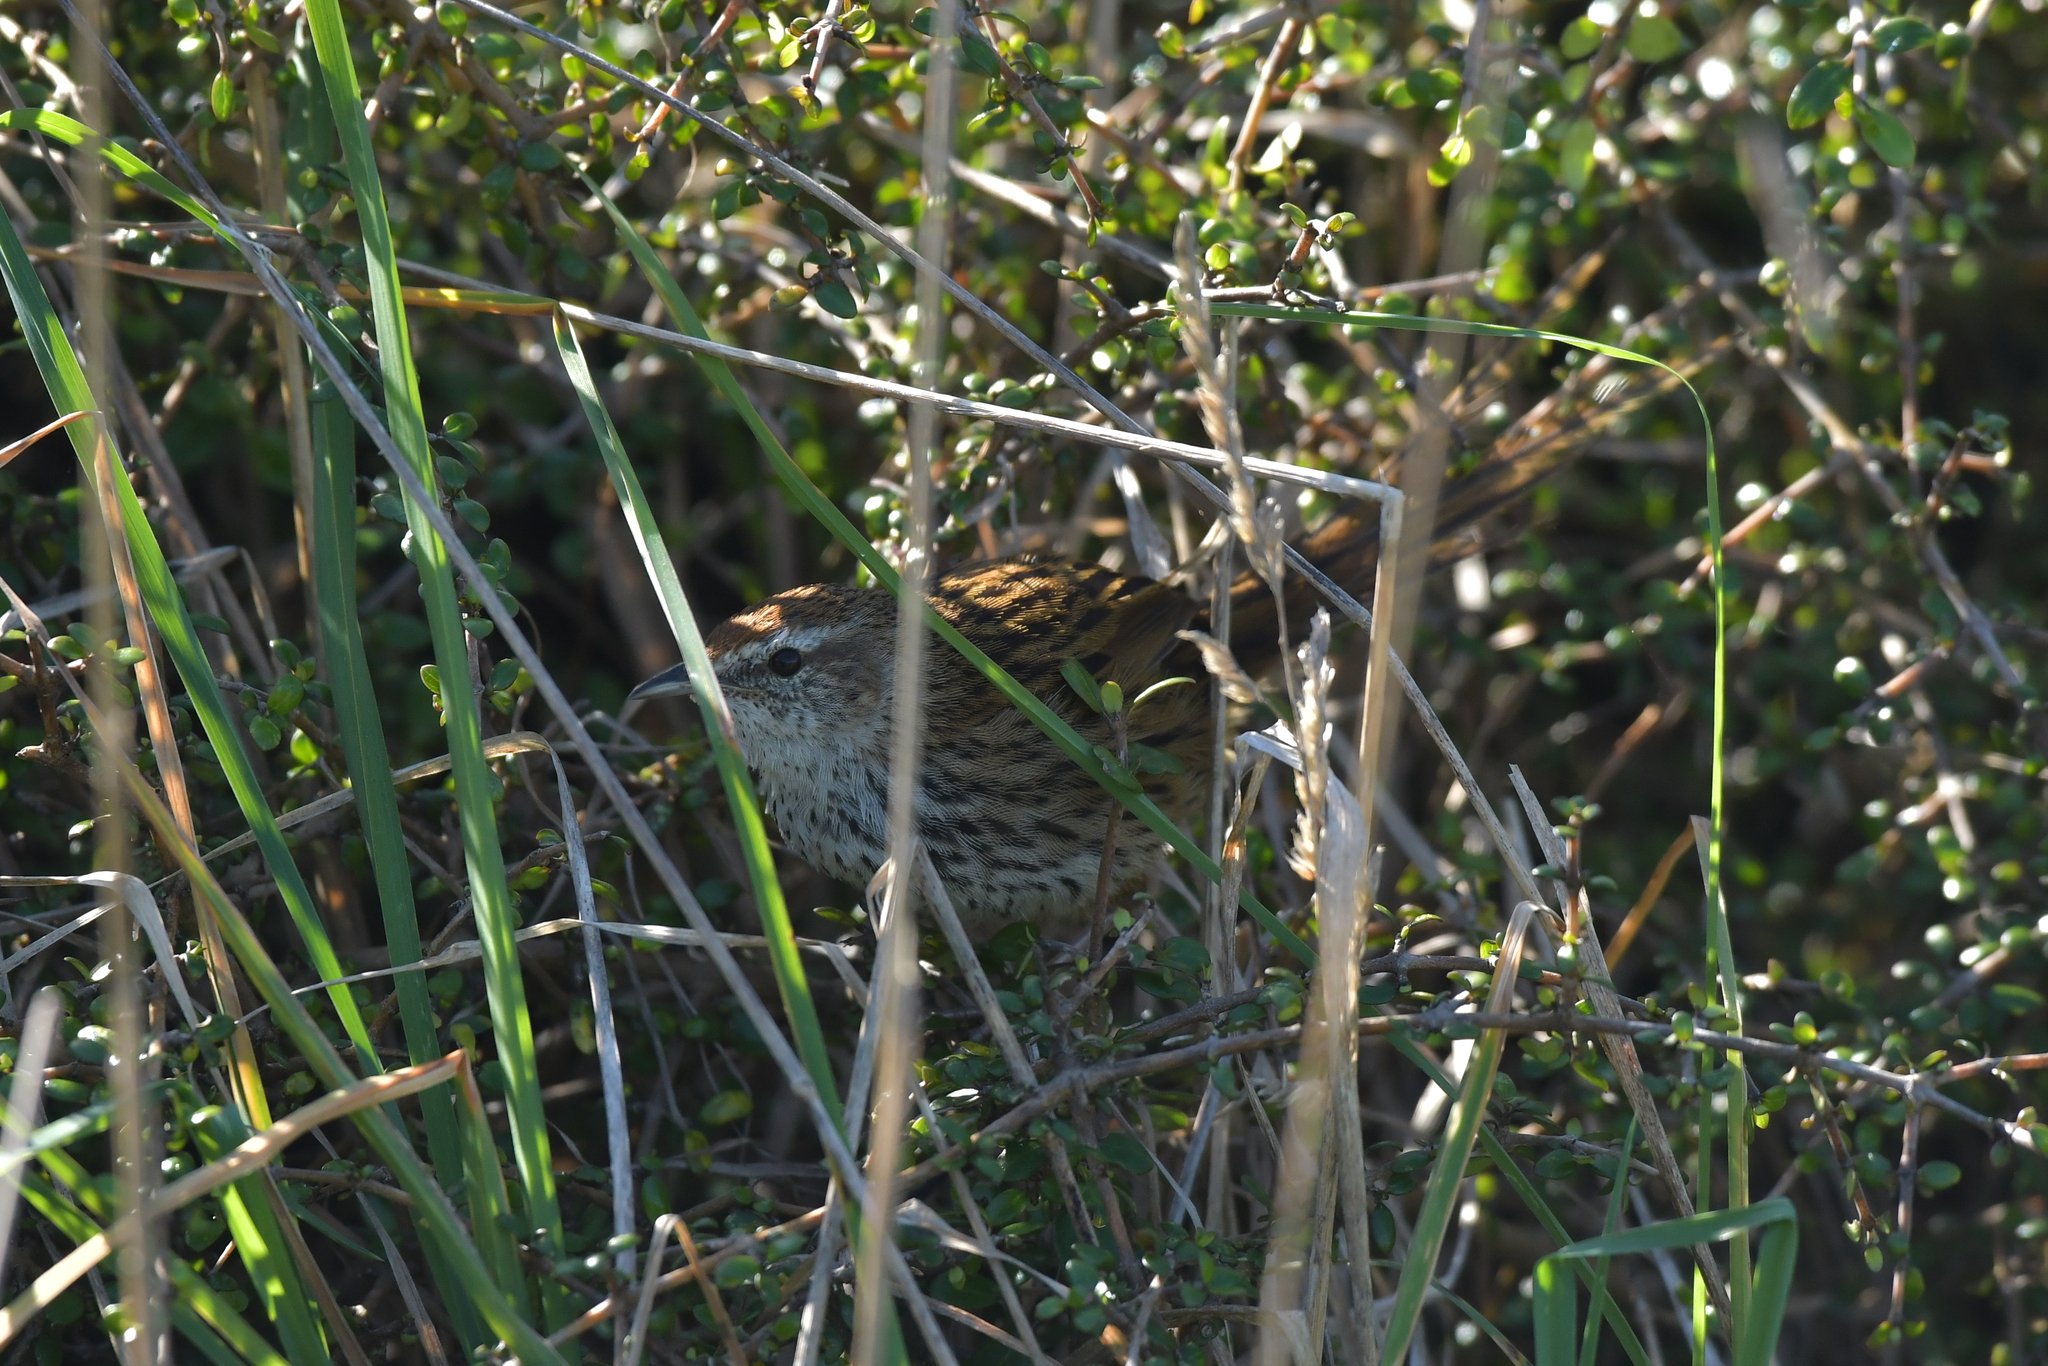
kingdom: Animalia
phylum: Chordata
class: Aves
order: Passeriformes
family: Locustellidae
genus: Megalurus
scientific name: Megalurus punctatus
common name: New zealand fernbird
